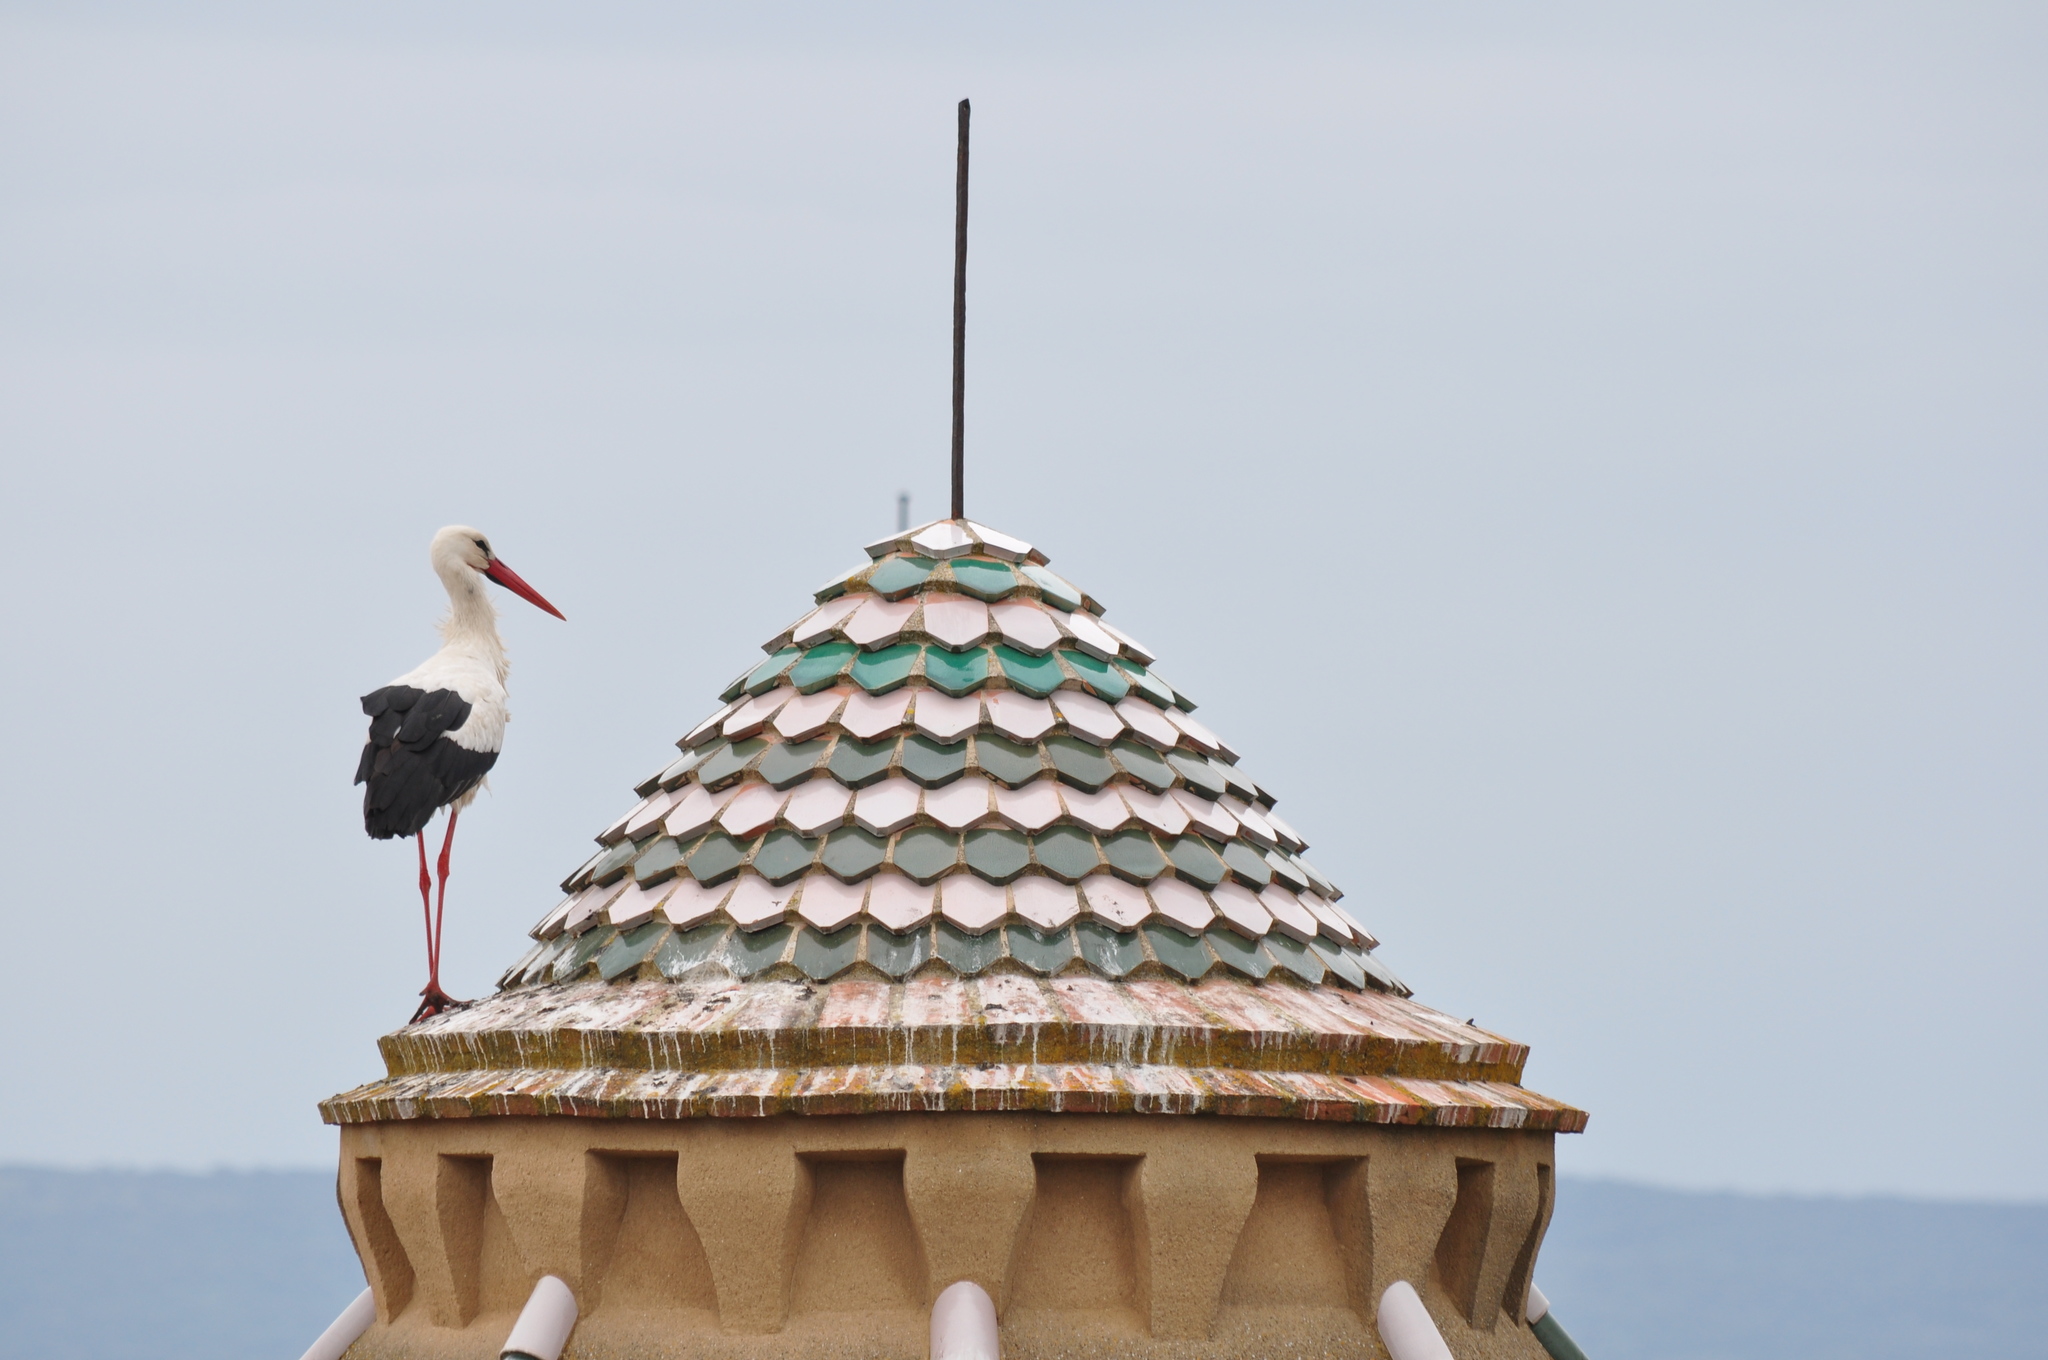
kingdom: Animalia
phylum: Chordata
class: Aves
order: Ciconiiformes
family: Ciconiidae
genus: Ciconia
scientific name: Ciconia ciconia
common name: White stork
